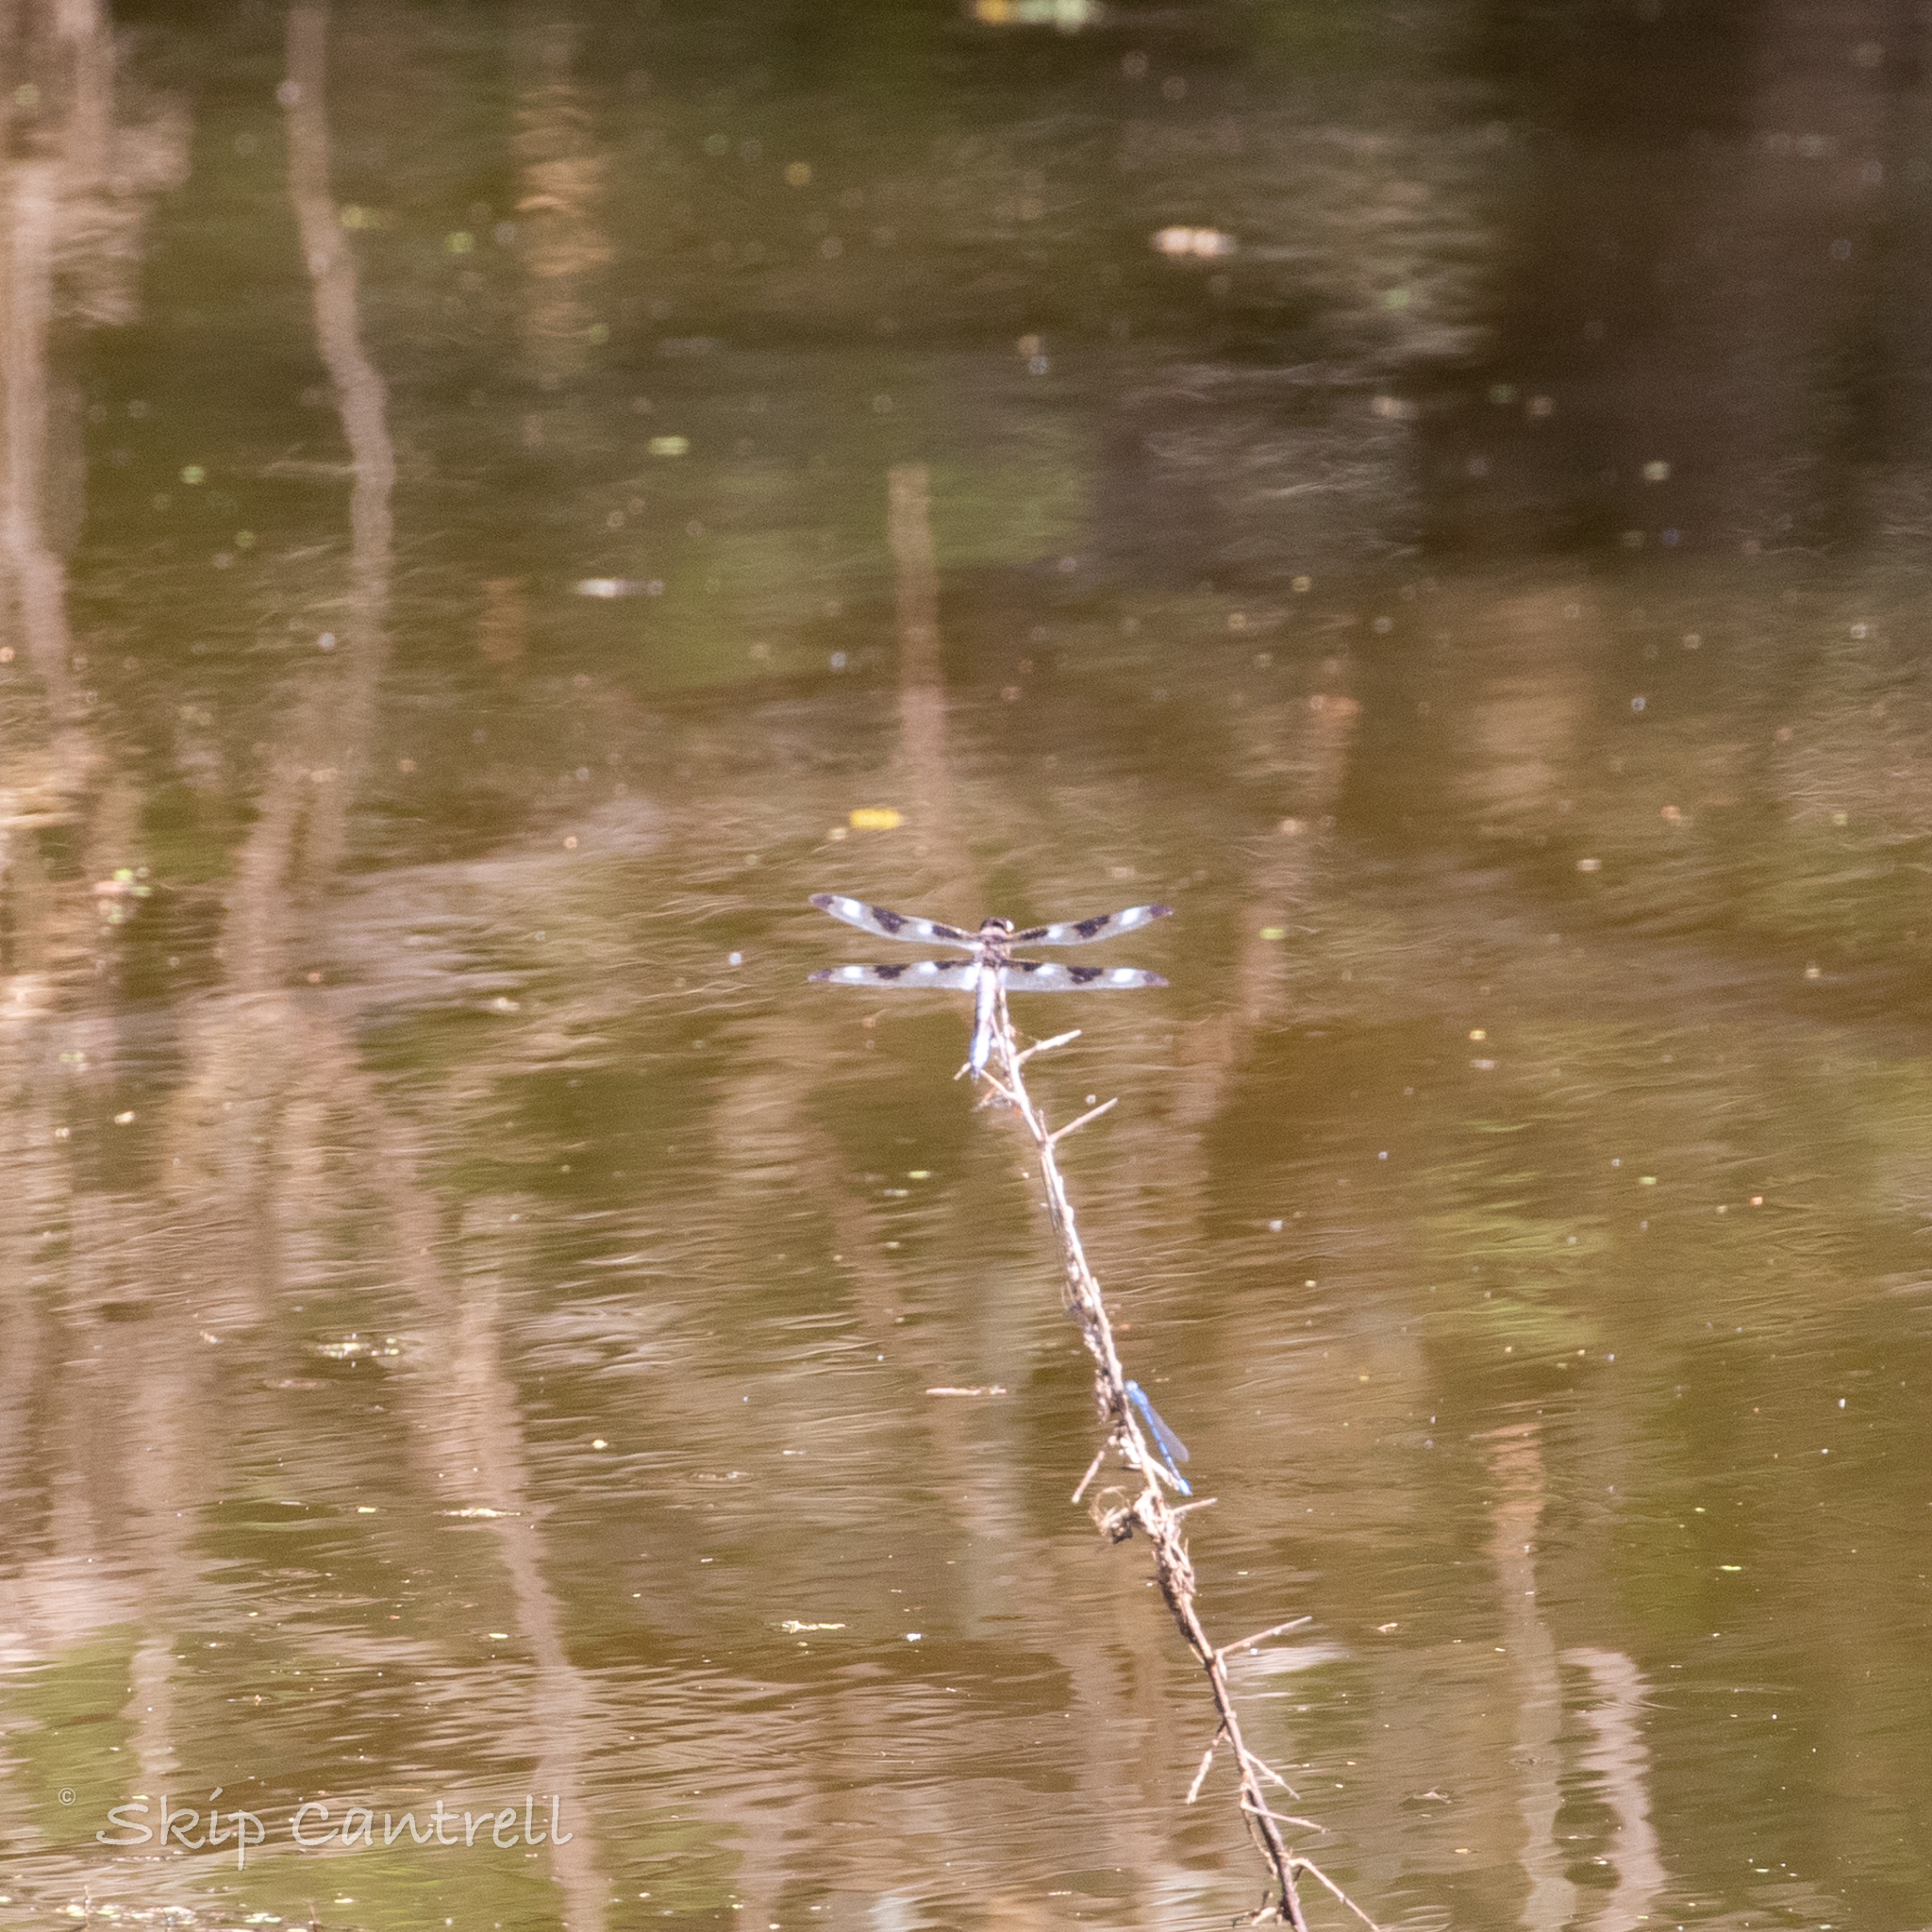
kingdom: Animalia
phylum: Arthropoda
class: Insecta
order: Odonata
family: Libellulidae
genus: Libellula
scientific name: Libellula pulchella
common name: Twelve-spotted skimmer
